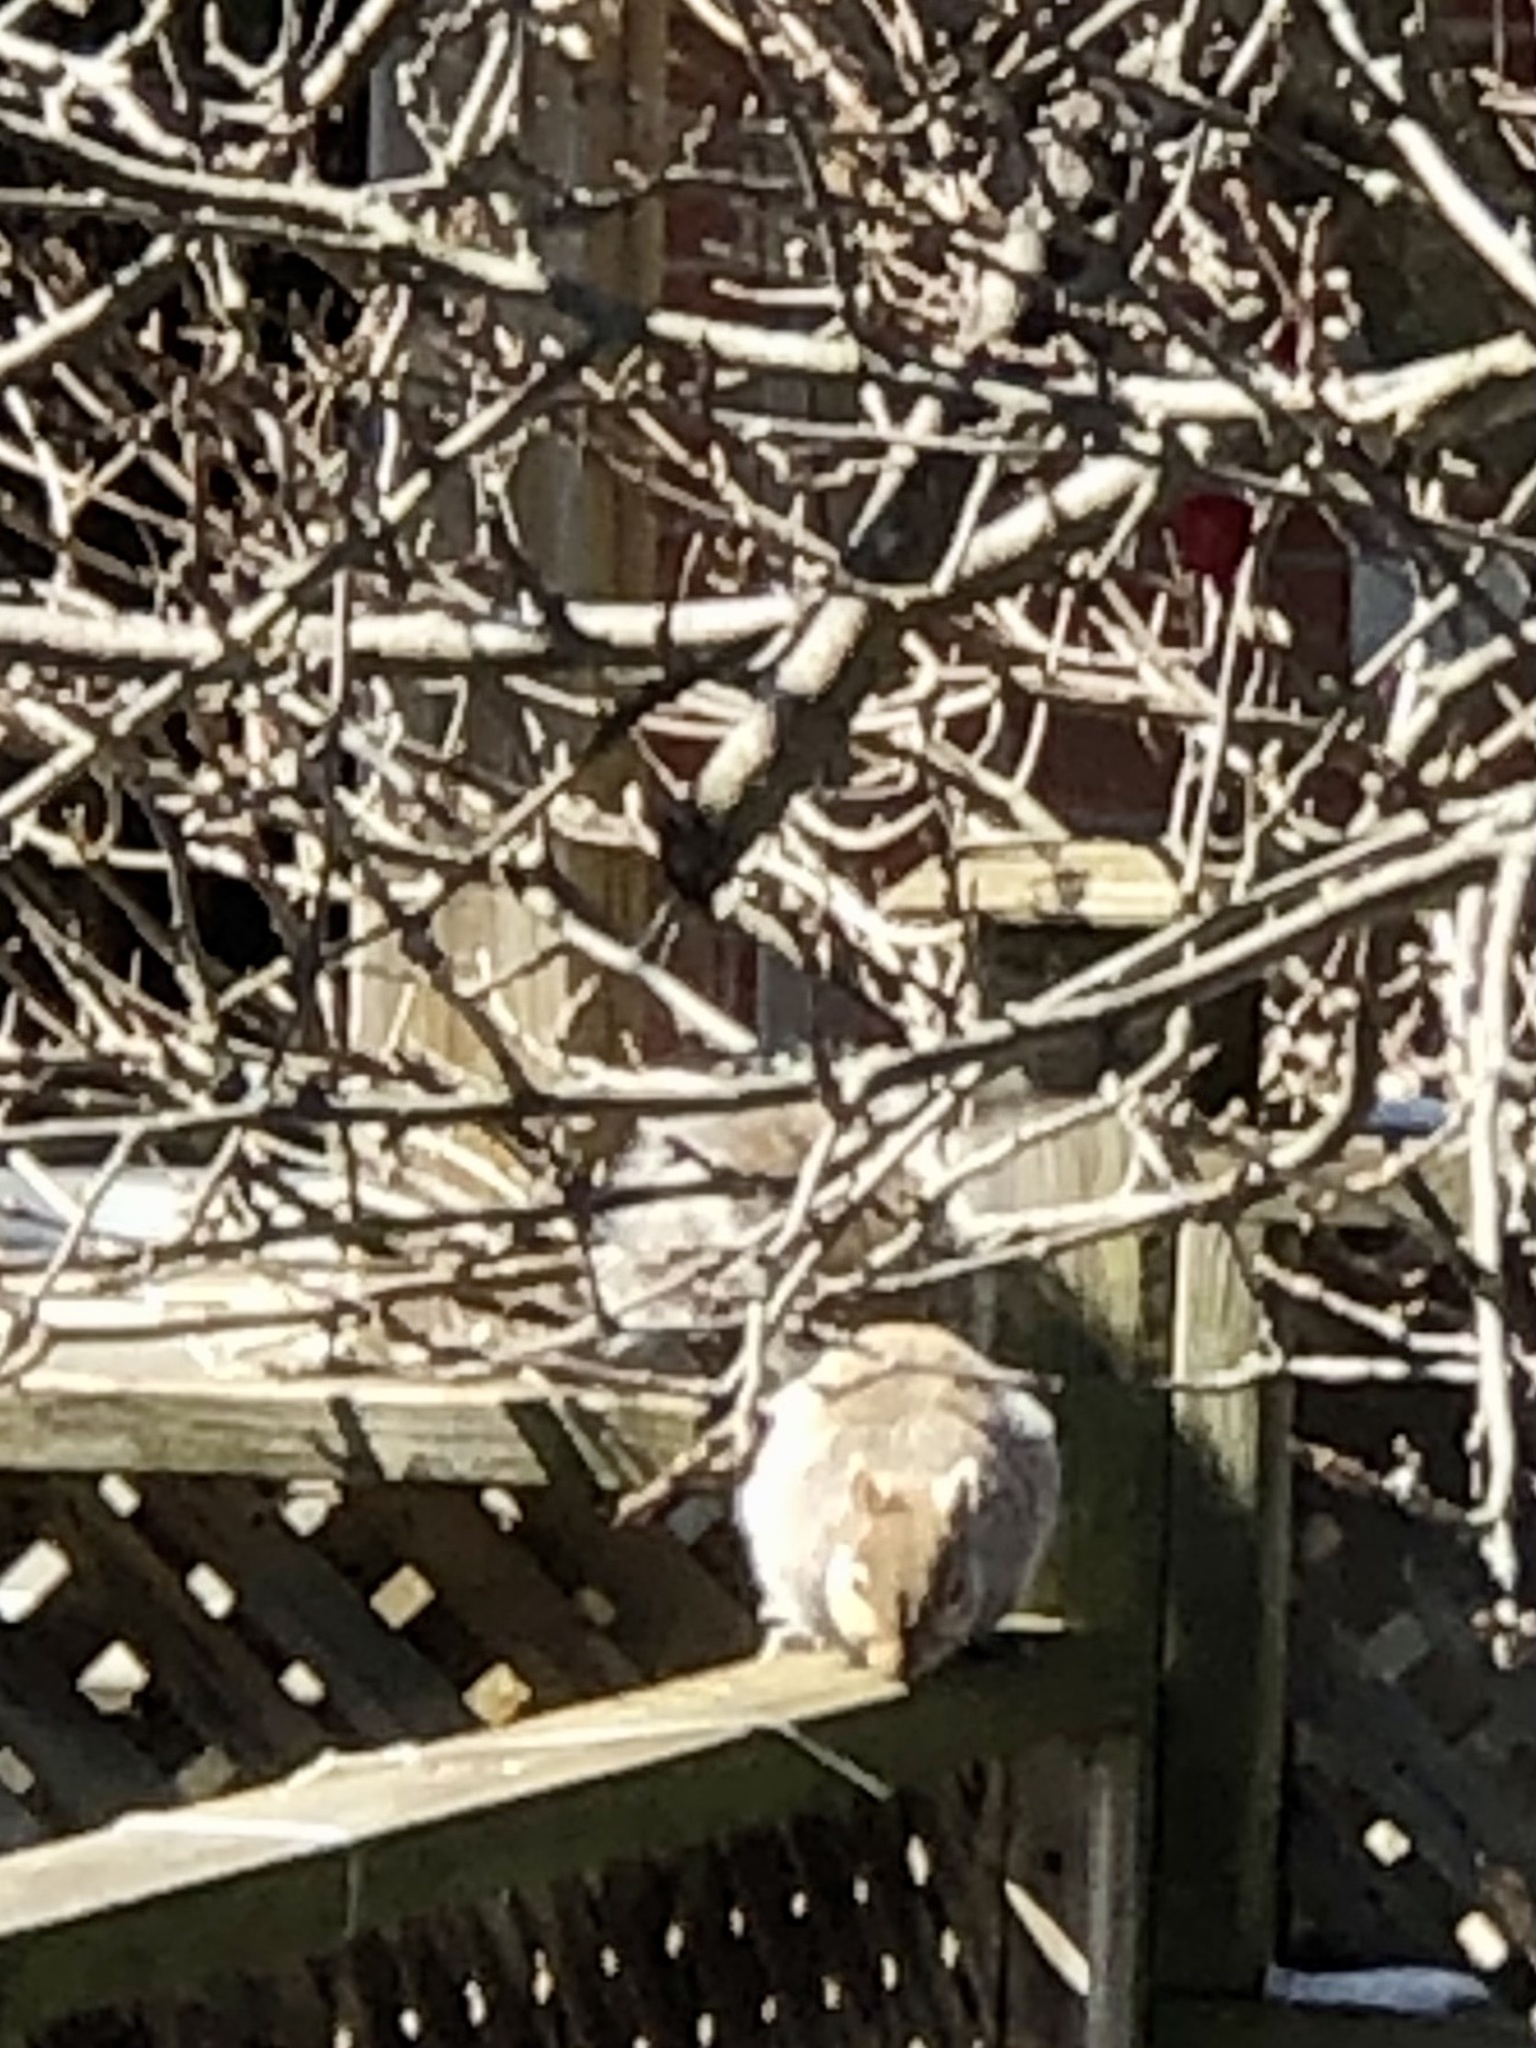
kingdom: Animalia
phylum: Chordata
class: Mammalia
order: Rodentia
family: Sciuridae
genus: Sciurus
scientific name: Sciurus carolinensis
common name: Eastern gray squirrel
